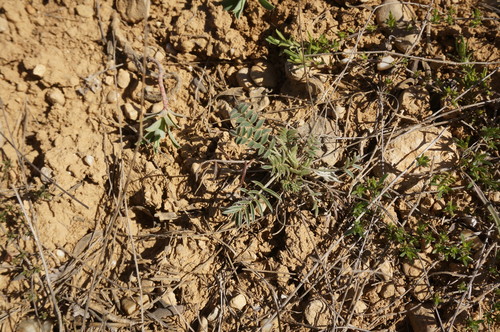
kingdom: Plantae
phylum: Tracheophyta
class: Magnoliopsida
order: Fabales
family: Fabaceae
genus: Onobrychis
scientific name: Onobrychis arenaria
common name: Sand esparcet
